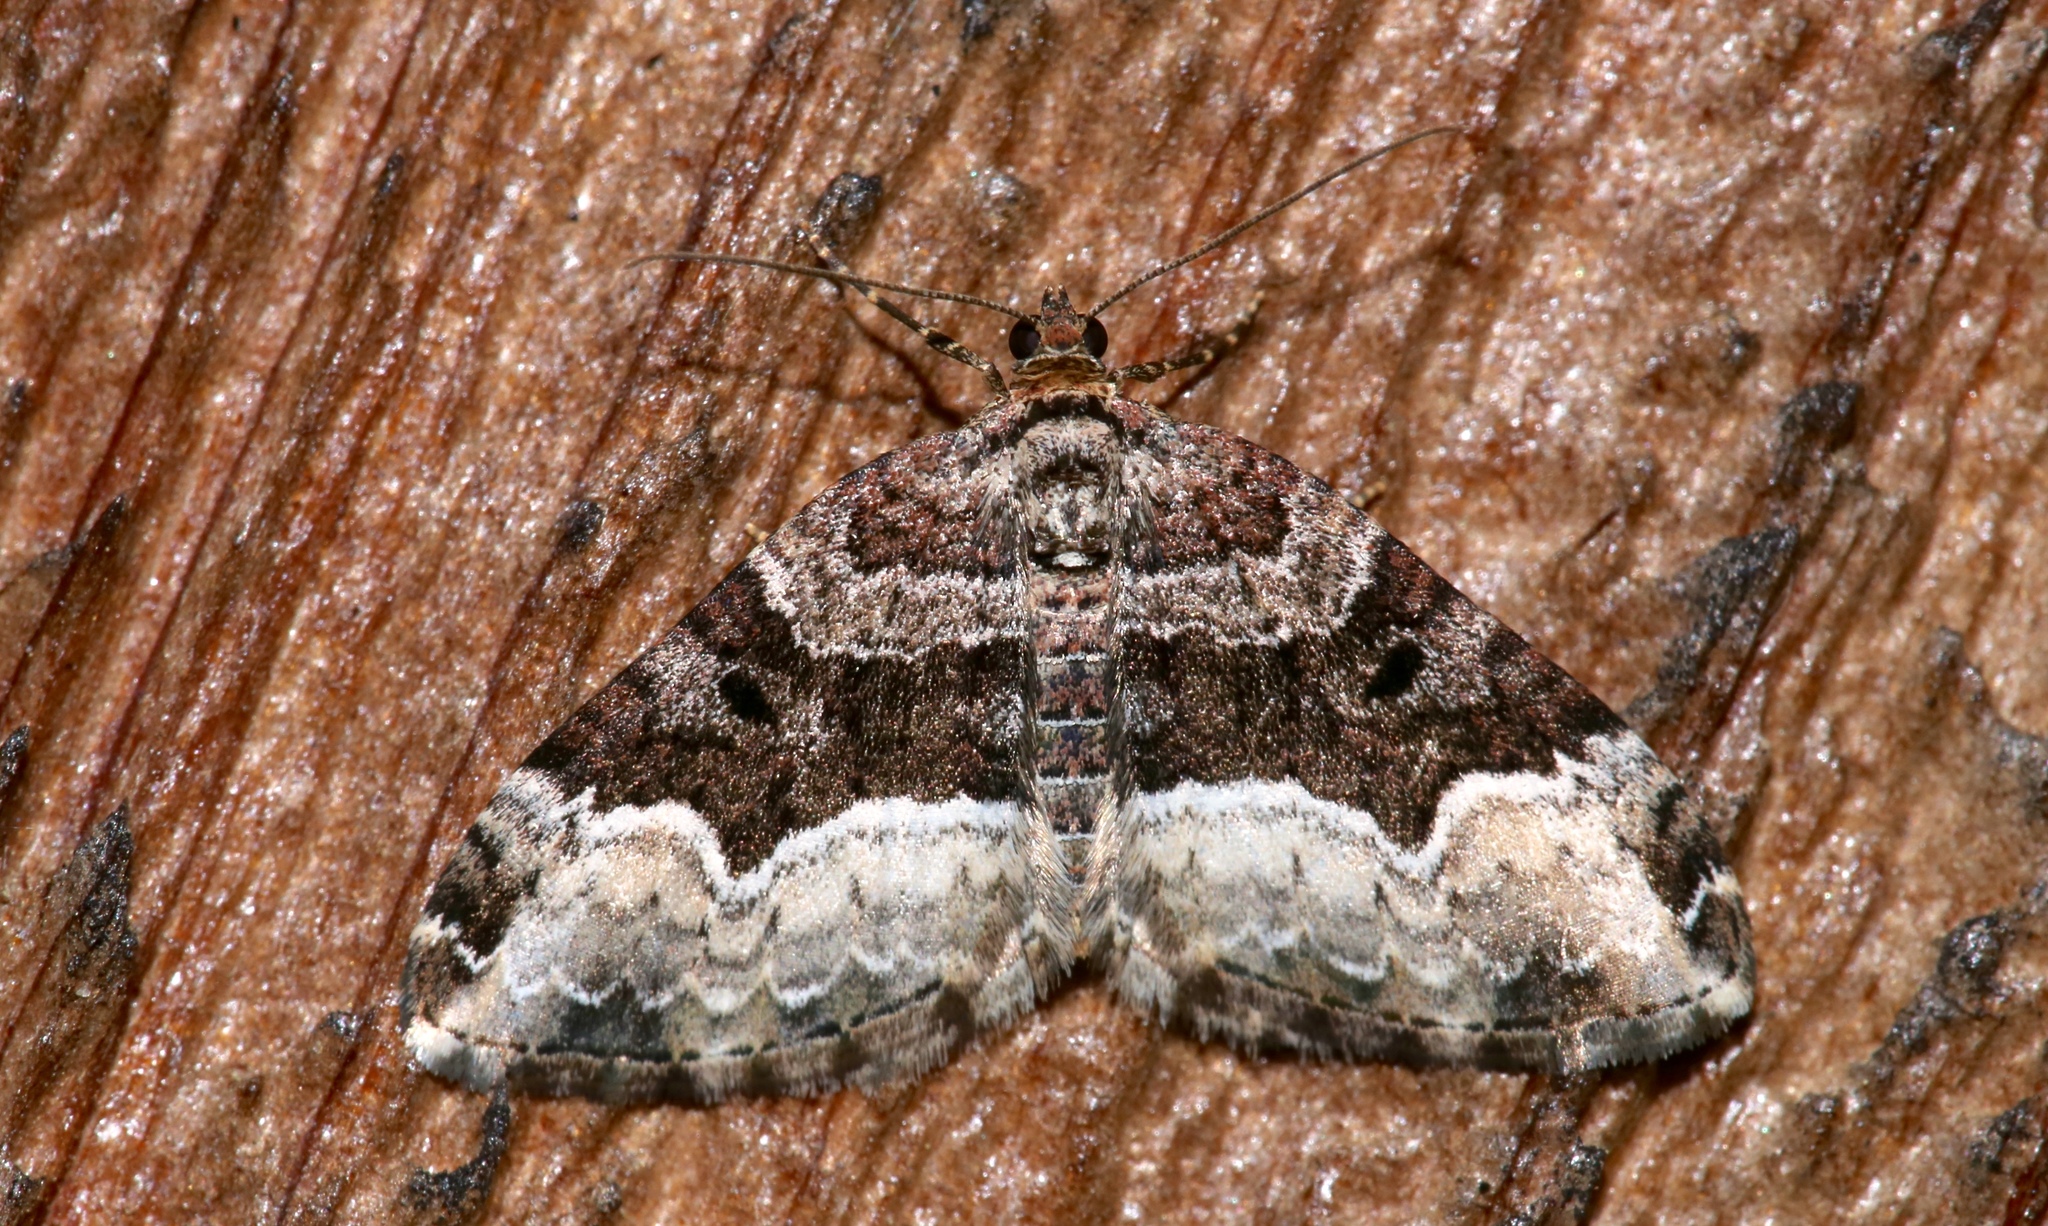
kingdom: Animalia
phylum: Arthropoda
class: Insecta
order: Lepidoptera
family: Geometridae
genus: Euphyia
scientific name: Euphyia intermediata
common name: Sharp-angled carpet
